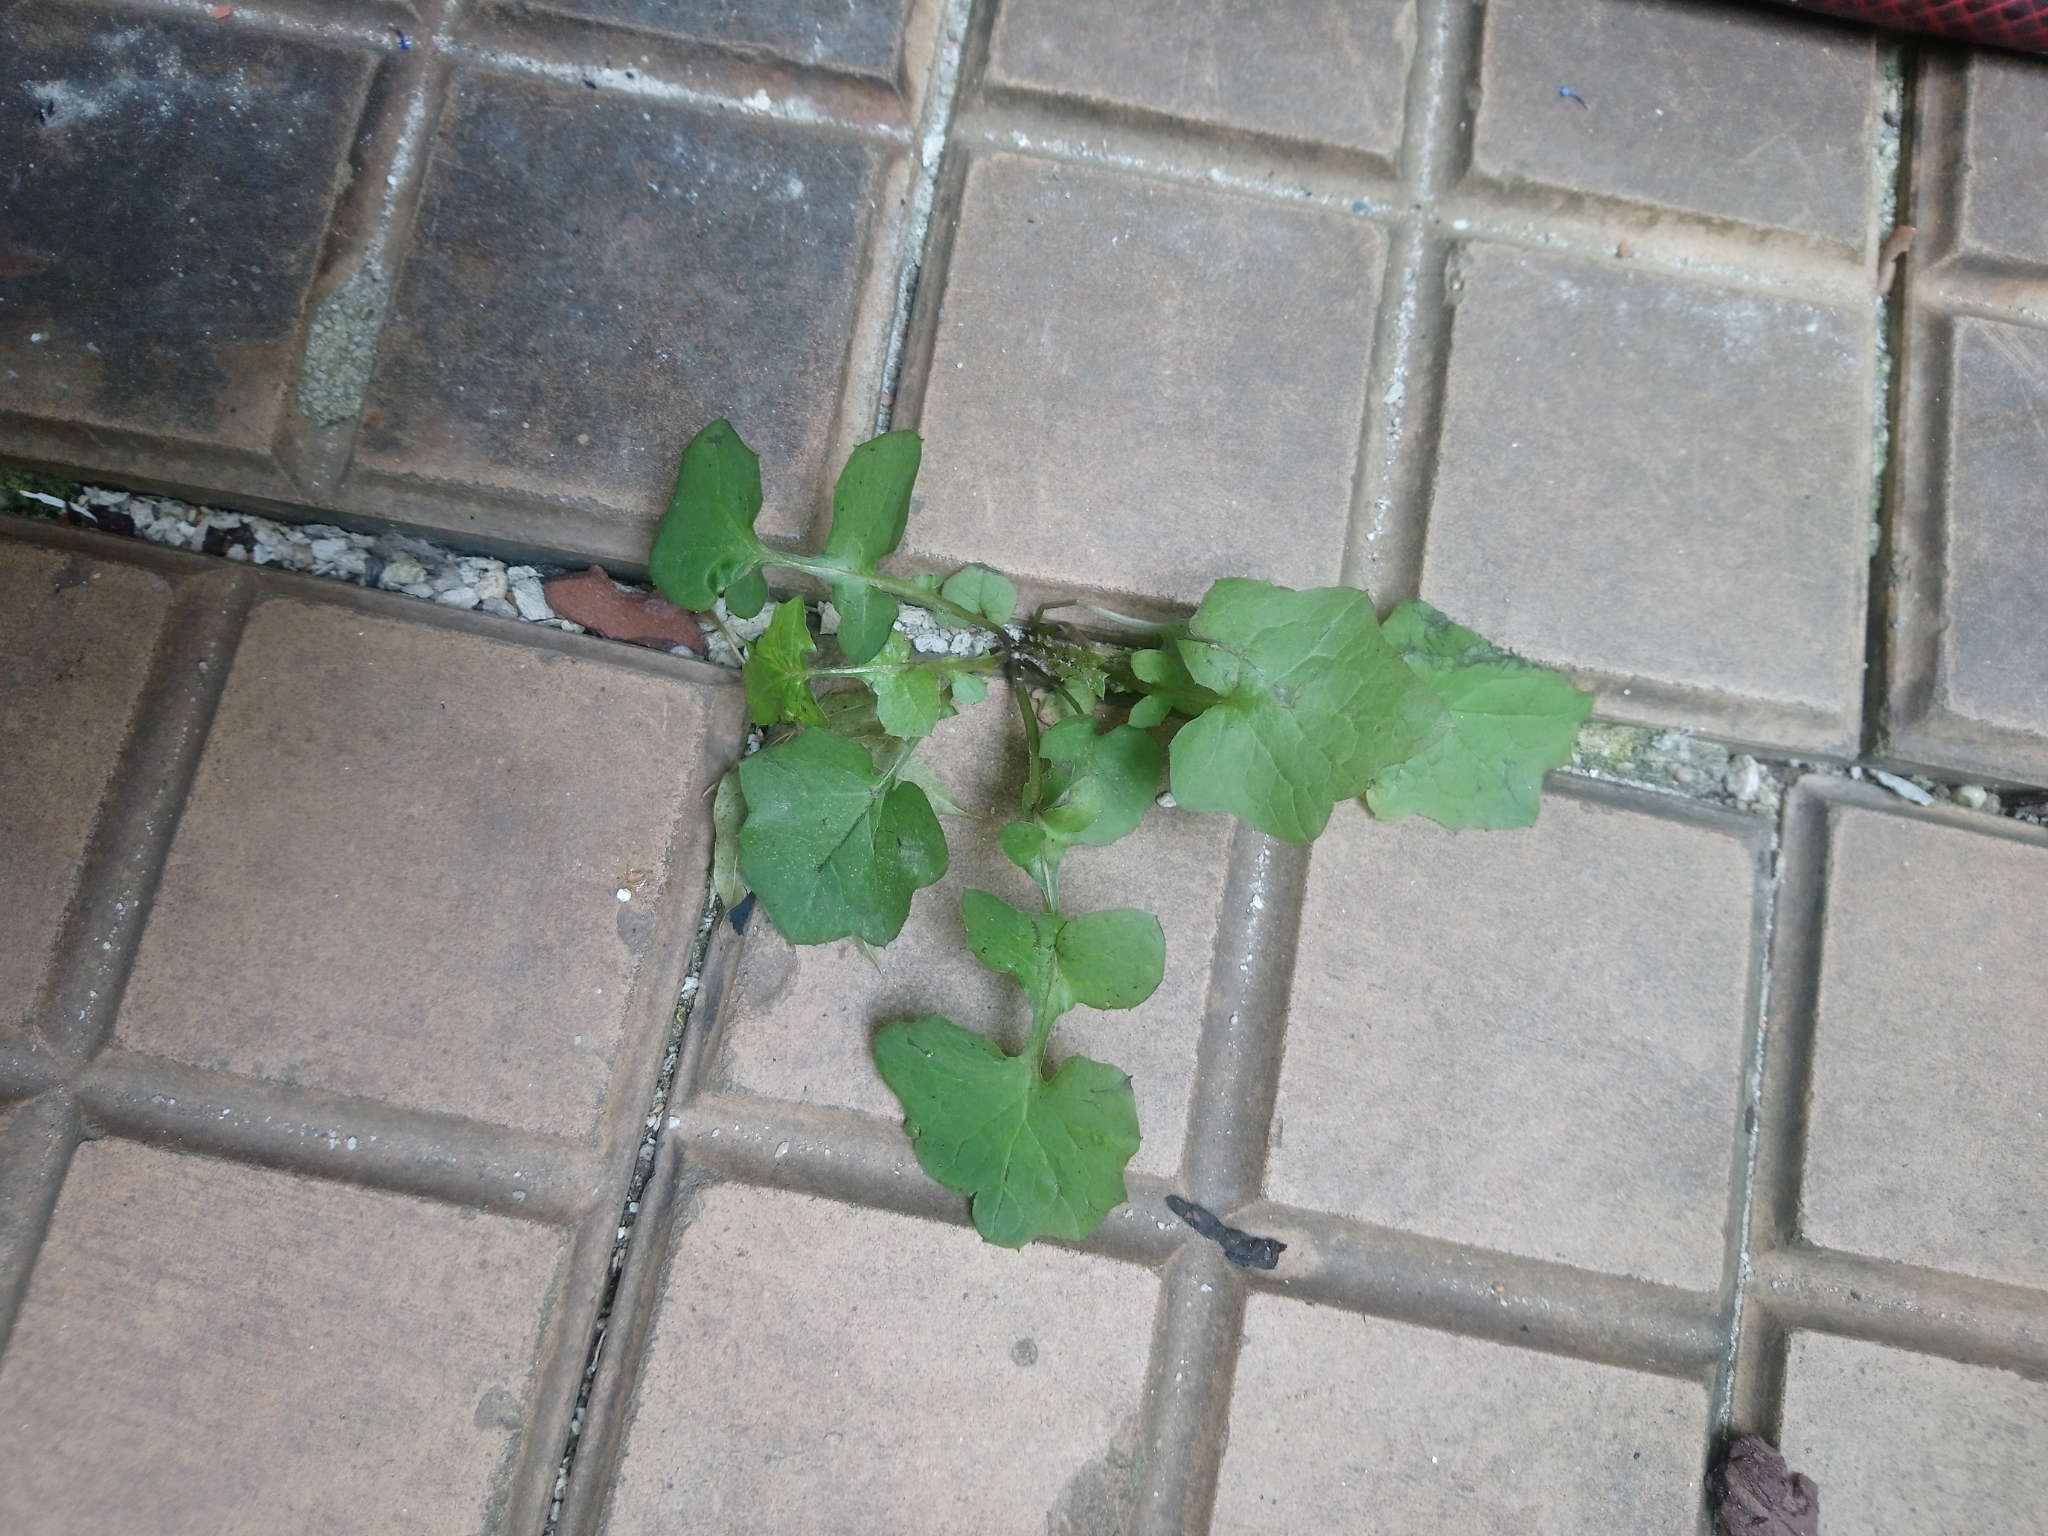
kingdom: Plantae
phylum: Tracheophyta
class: Magnoliopsida
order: Asterales
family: Asteraceae
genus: Mycelis
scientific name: Mycelis muralis
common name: Wall lettuce
